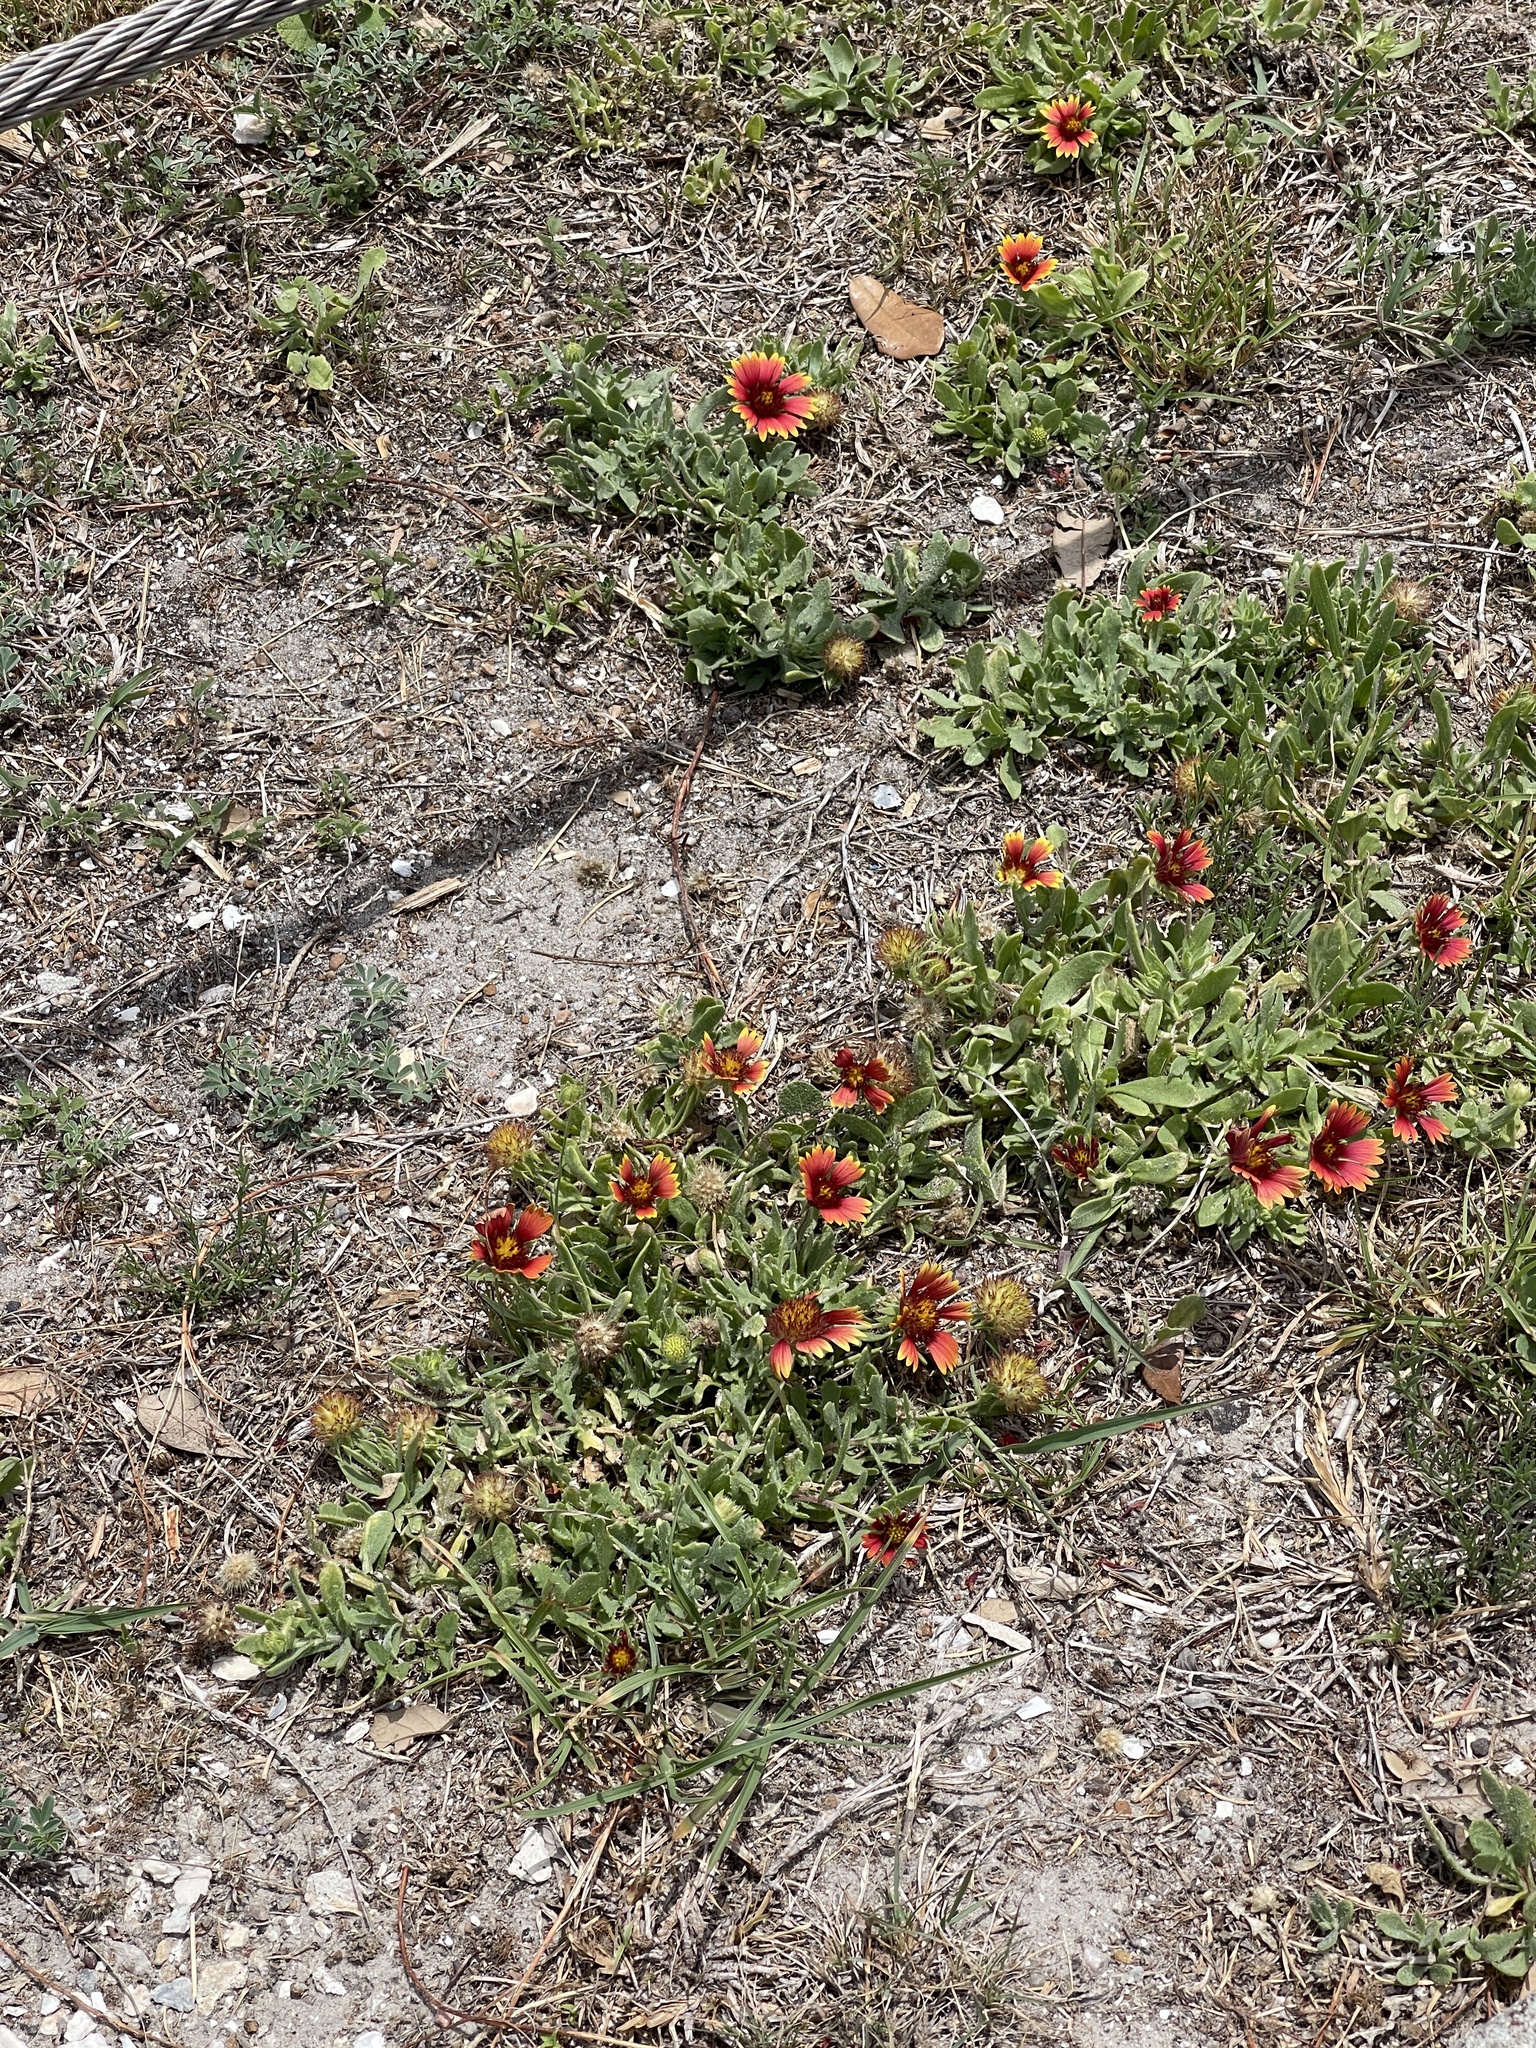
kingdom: Plantae
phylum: Tracheophyta
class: Magnoliopsida
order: Asterales
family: Asteraceae
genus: Gaillardia
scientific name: Gaillardia pulchella
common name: Firewheel
